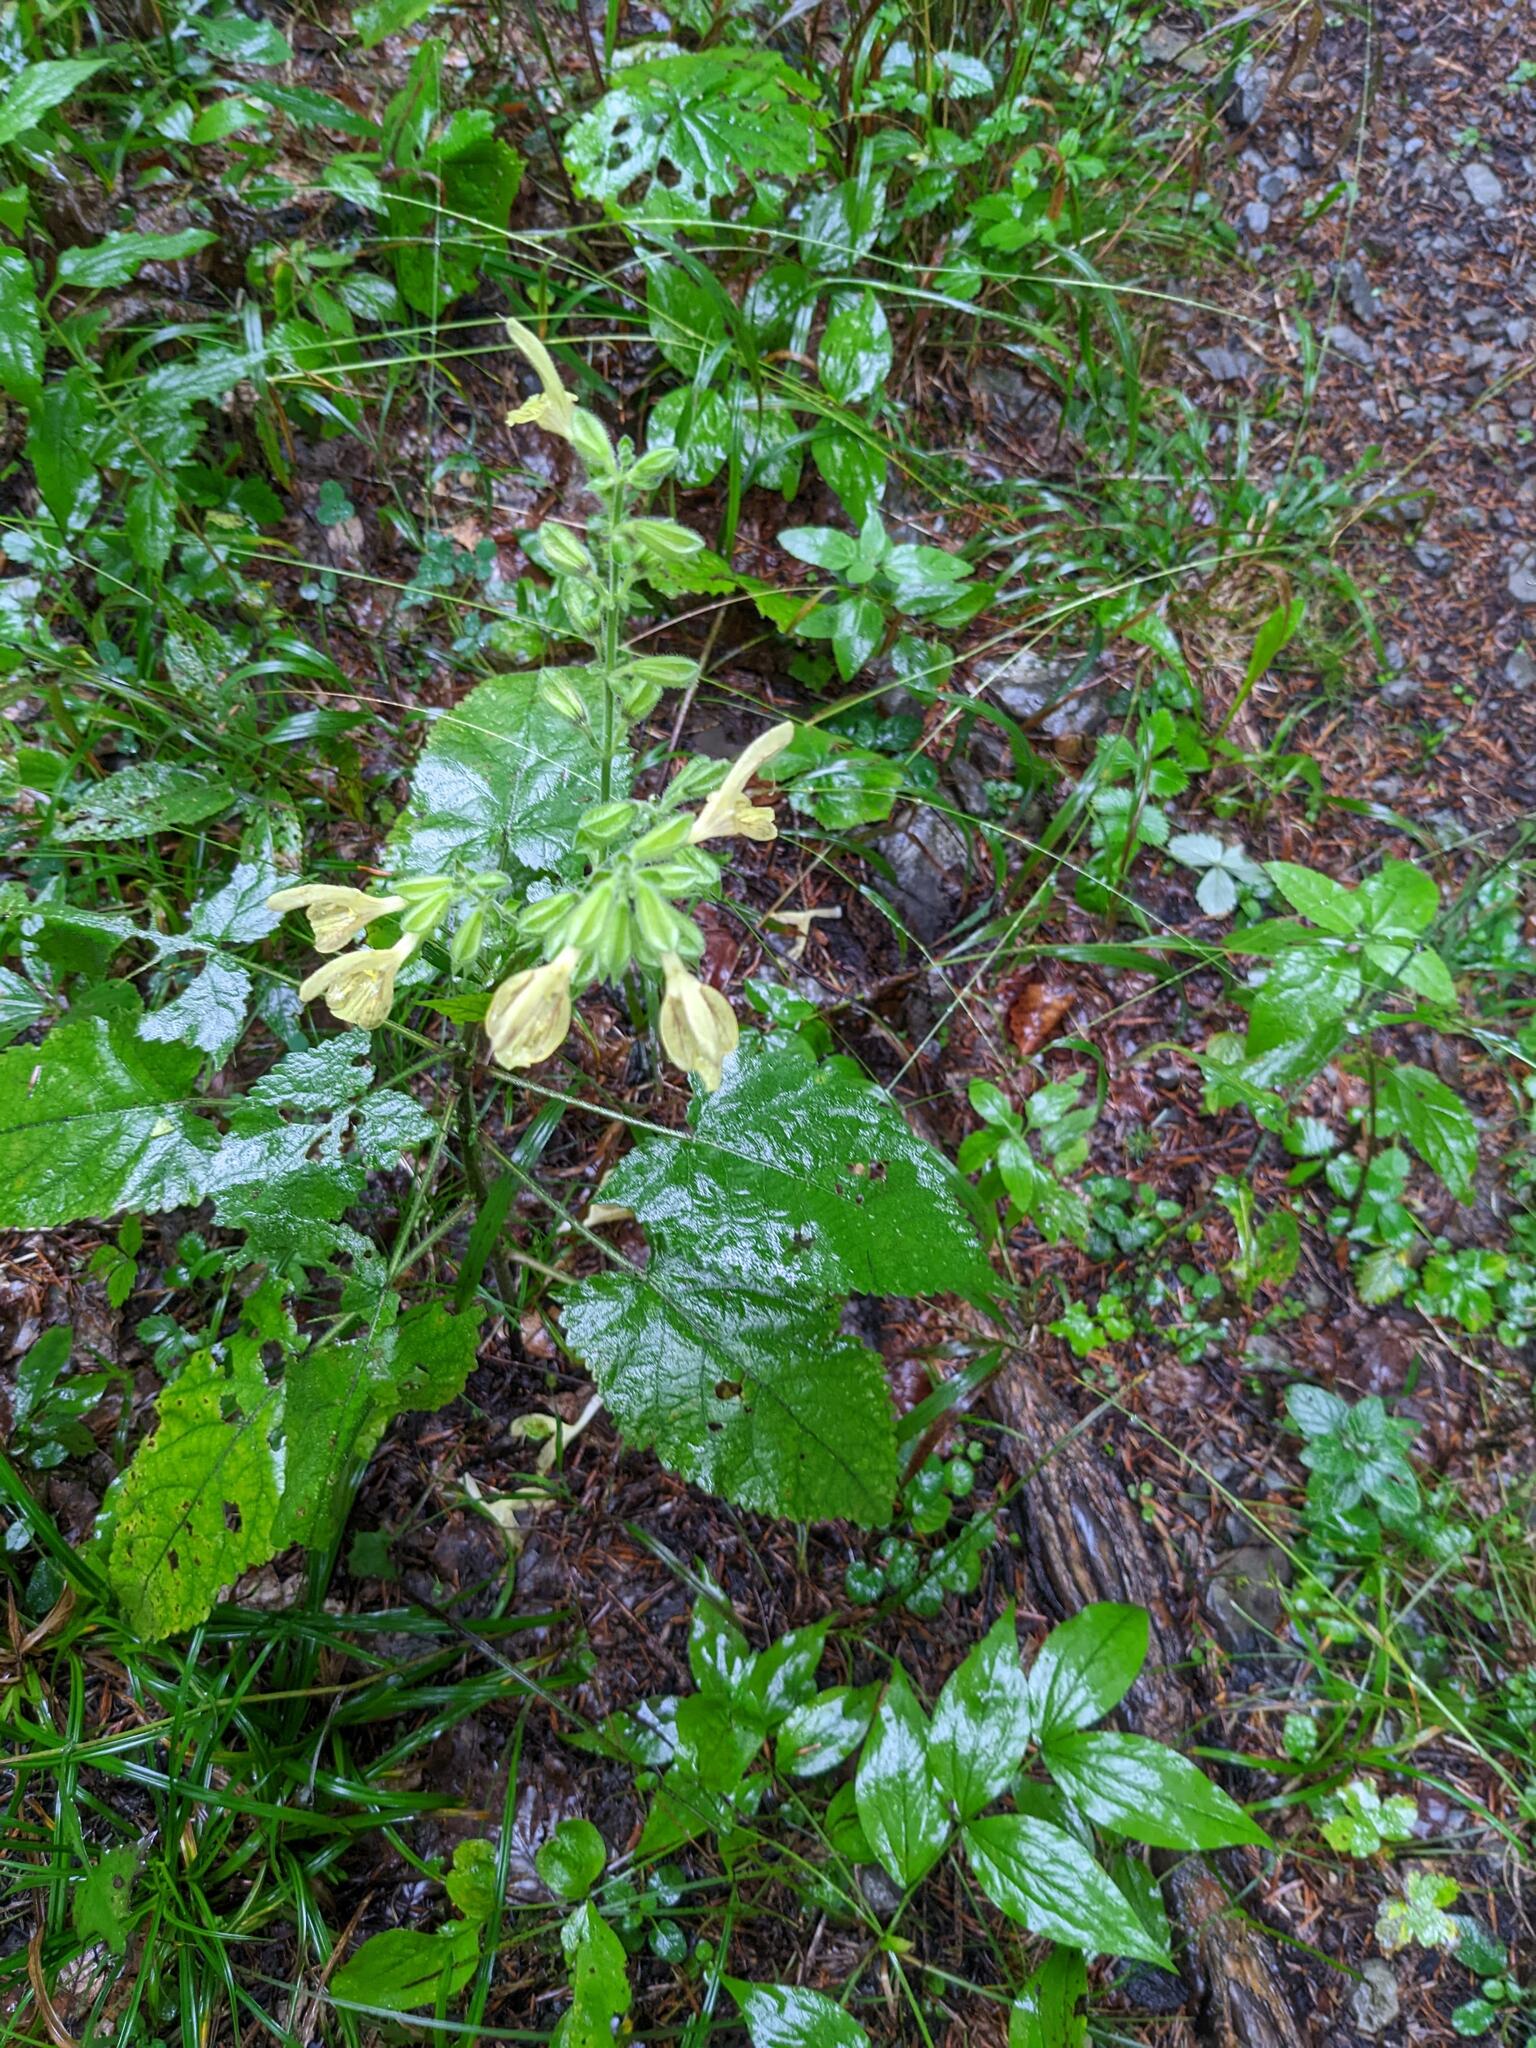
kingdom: Plantae
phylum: Tracheophyta
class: Magnoliopsida
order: Lamiales
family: Lamiaceae
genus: Salvia
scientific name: Salvia glutinosa
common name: Sticky clary
